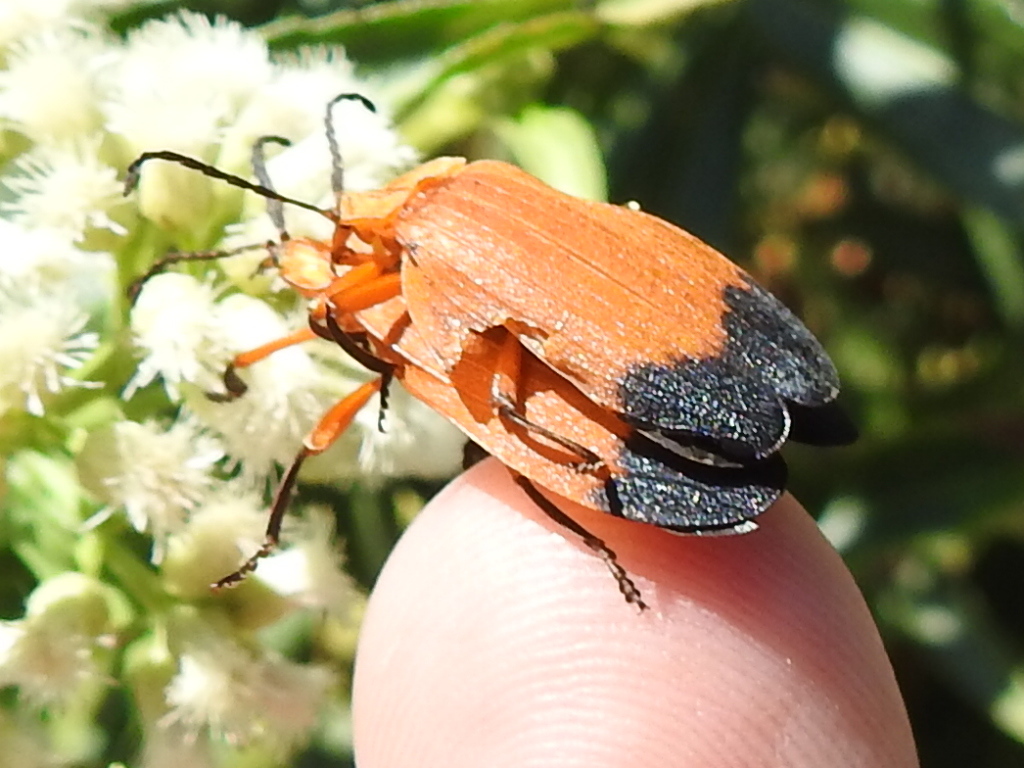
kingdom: Animalia
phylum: Arthropoda
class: Insecta
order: Coleoptera
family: Lycidae
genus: Lycus
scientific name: Lycus arizonensis
